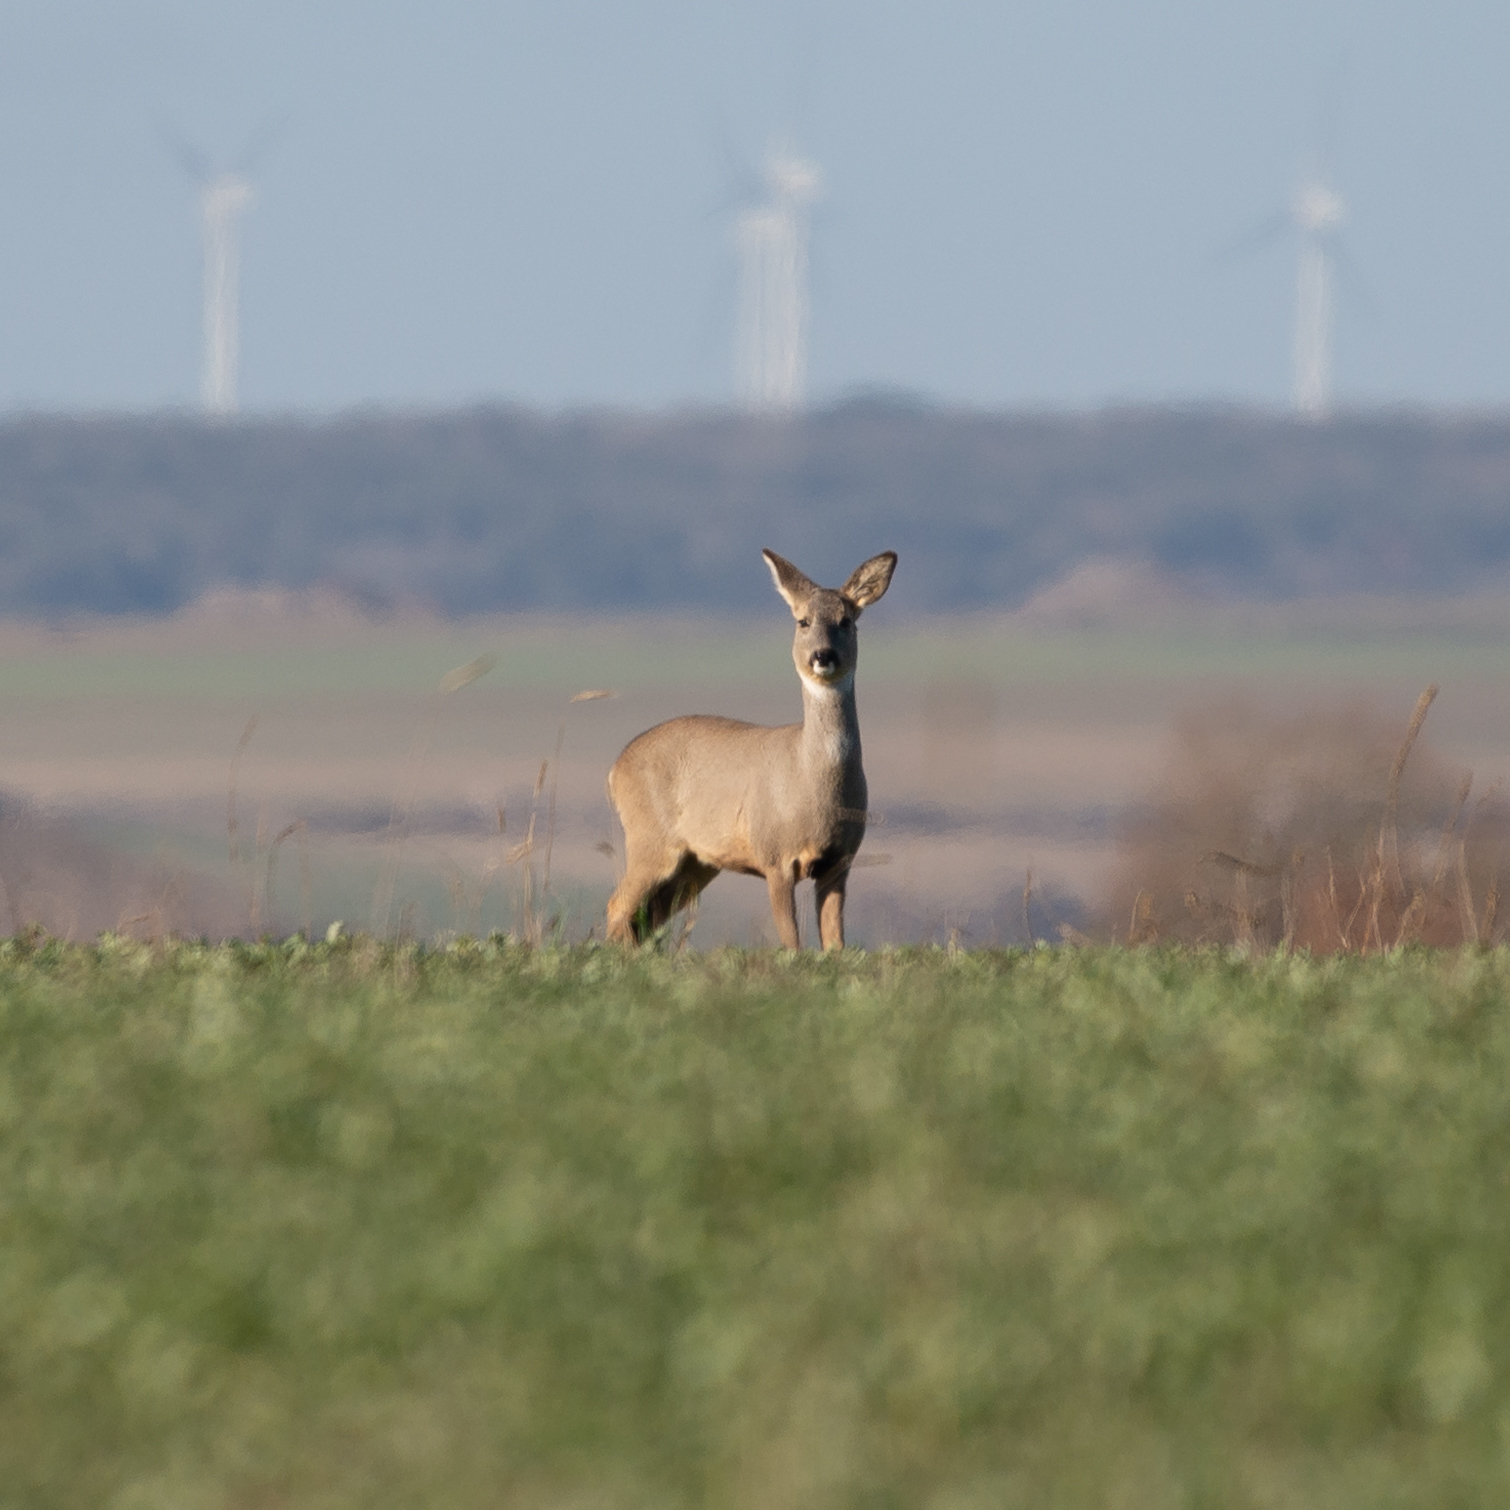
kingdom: Animalia
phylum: Chordata
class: Mammalia
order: Artiodactyla
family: Cervidae
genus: Capreolus
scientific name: Capreolus capreolus
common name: Western roe deer
